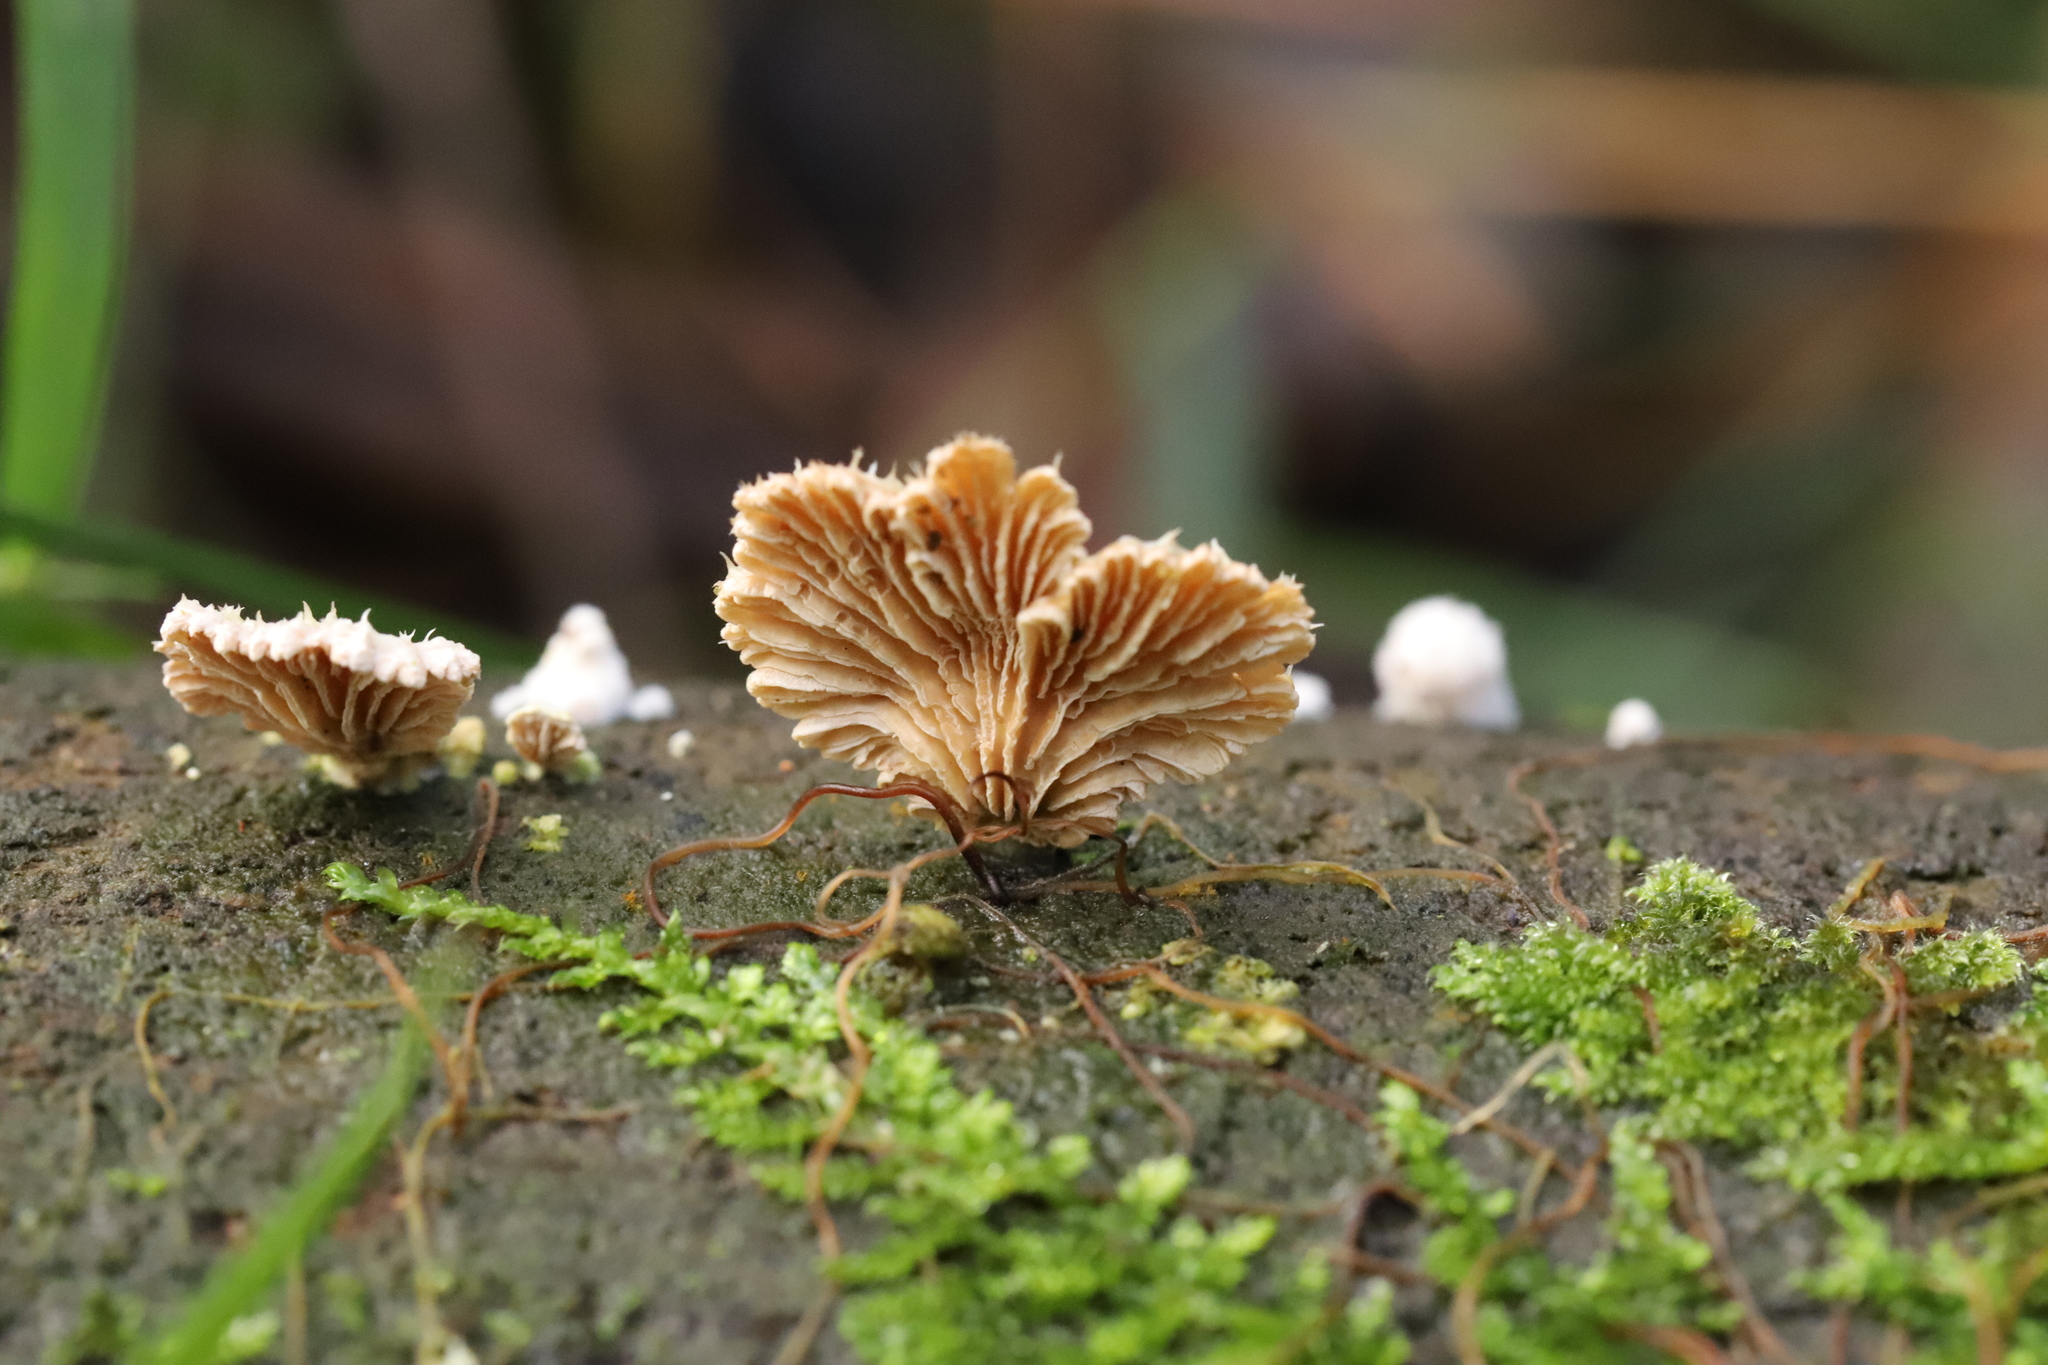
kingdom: Fungi
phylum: Basidiomycota
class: Agaricomycetes
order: Agaricales
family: Schizophyllaceae
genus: Schizophyllum
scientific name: Schizophyllum commune
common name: Common porecrust
